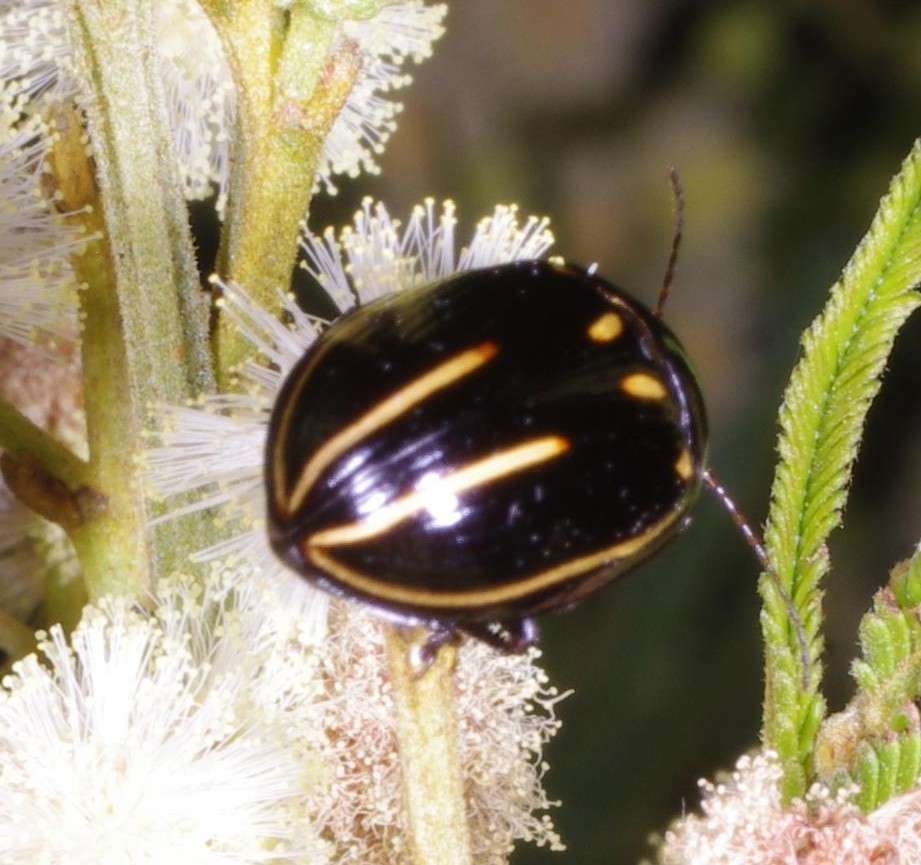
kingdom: Animalia
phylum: Arthropoda
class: Insecta
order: Coleoptera
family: Chrysomelidae
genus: Paropsisterna
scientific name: Paropsisterna
